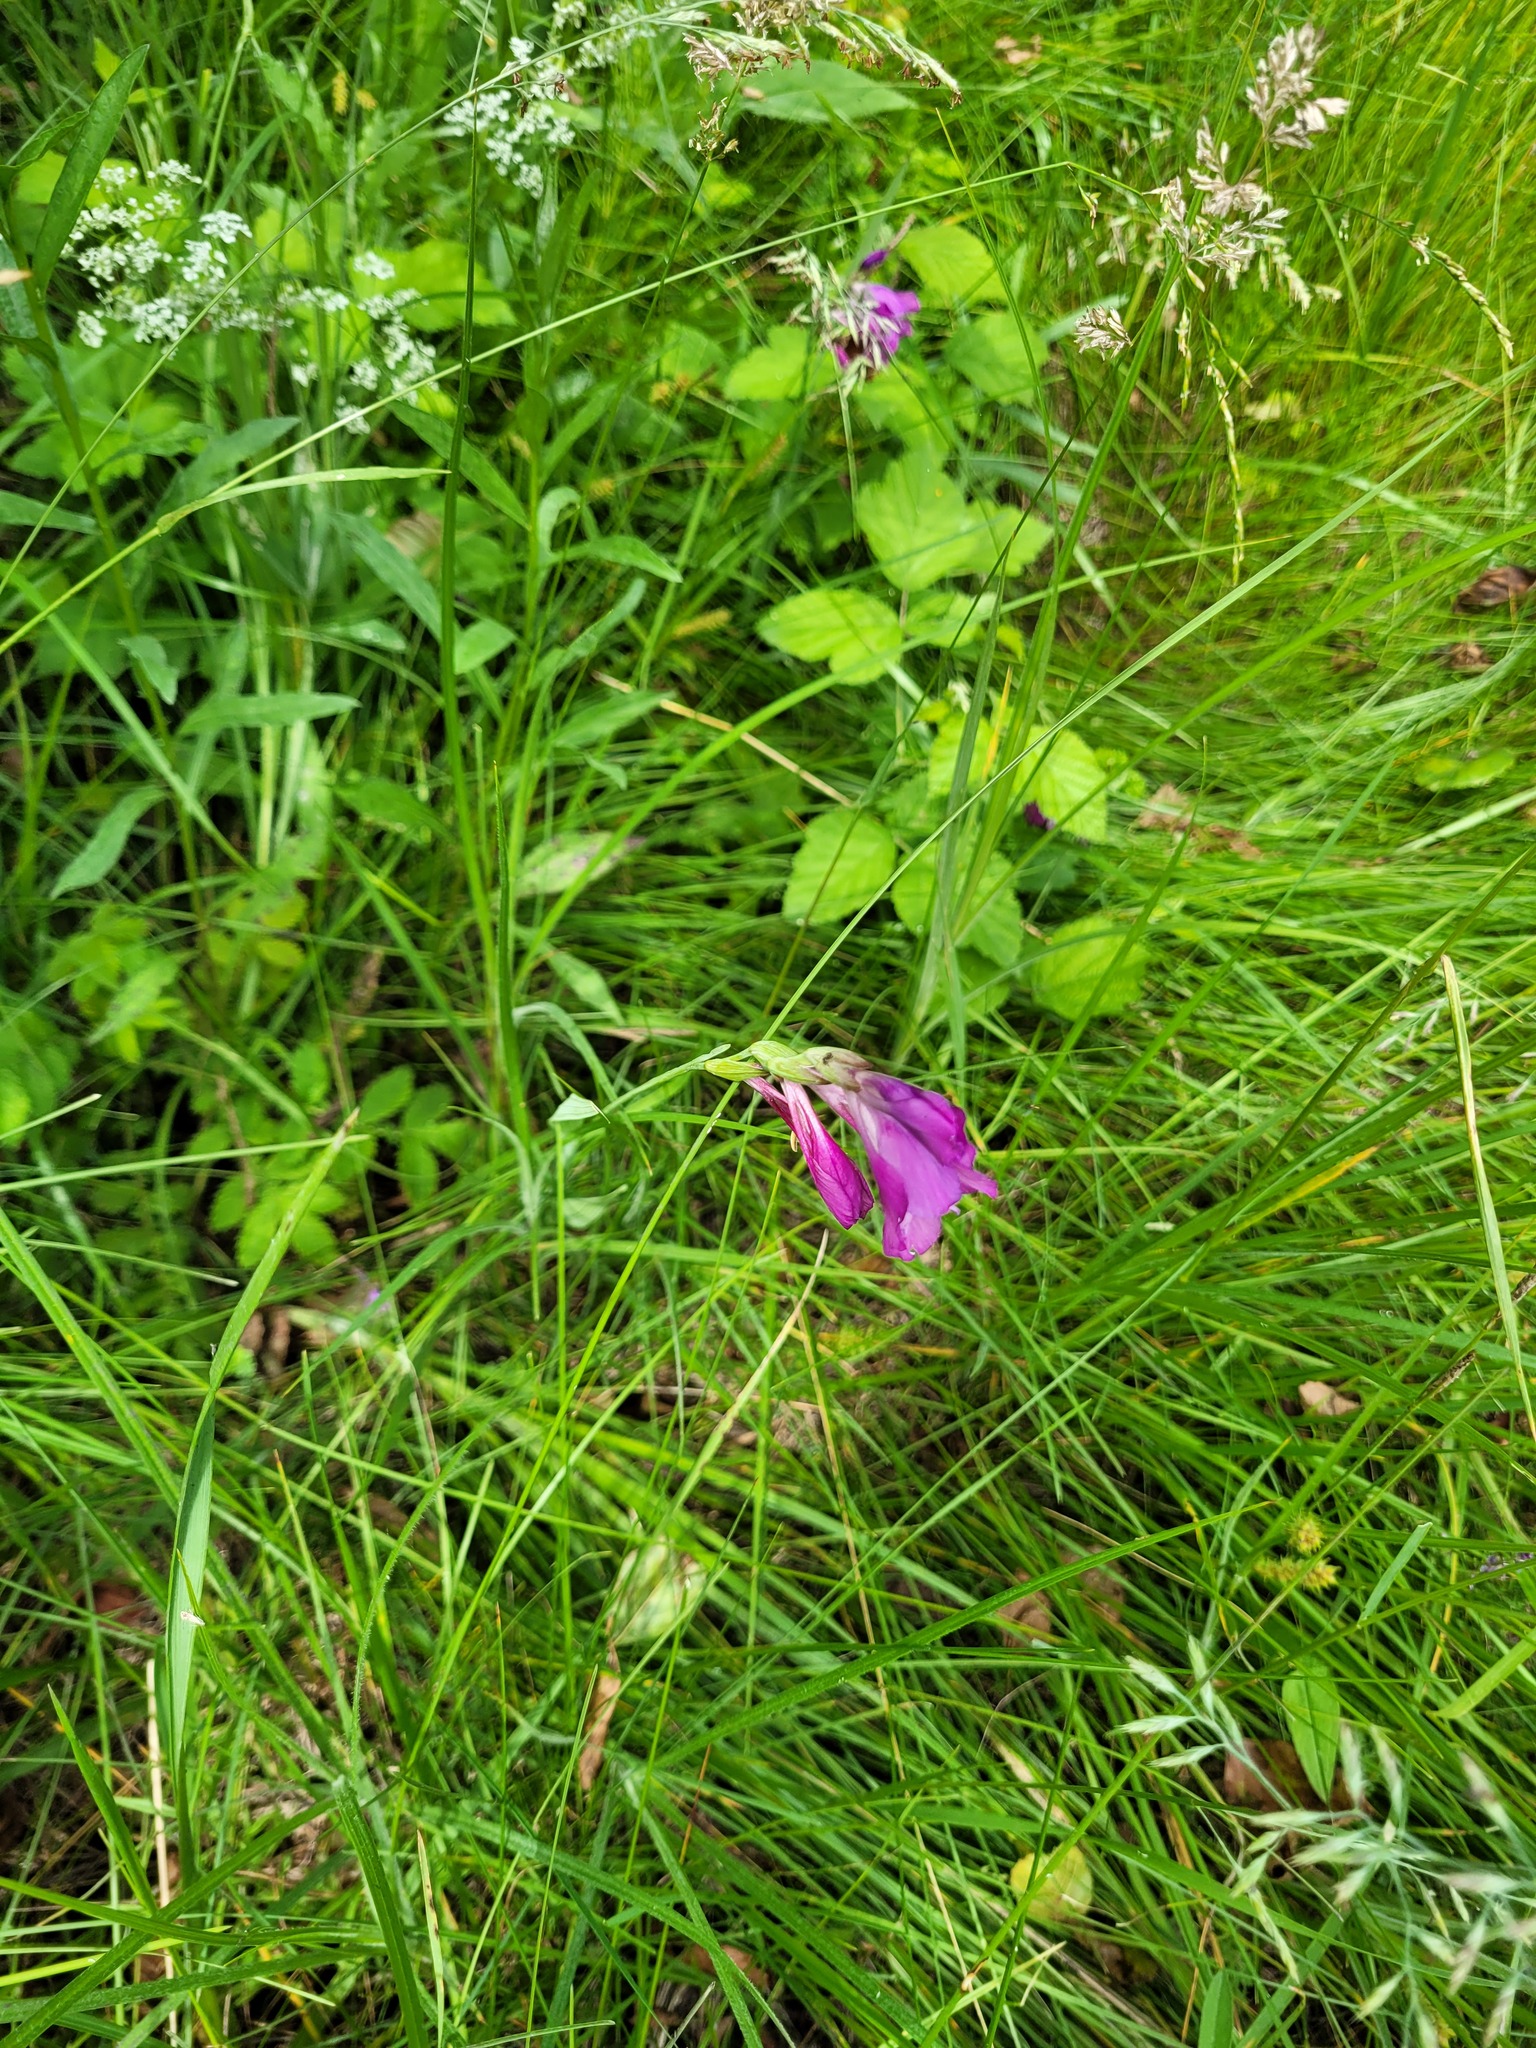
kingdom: Plantae
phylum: Tracheophyta
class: Liliopsida
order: Asparagales
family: Iridaceae
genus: Gladiolus
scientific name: Gladiolus tenuis
